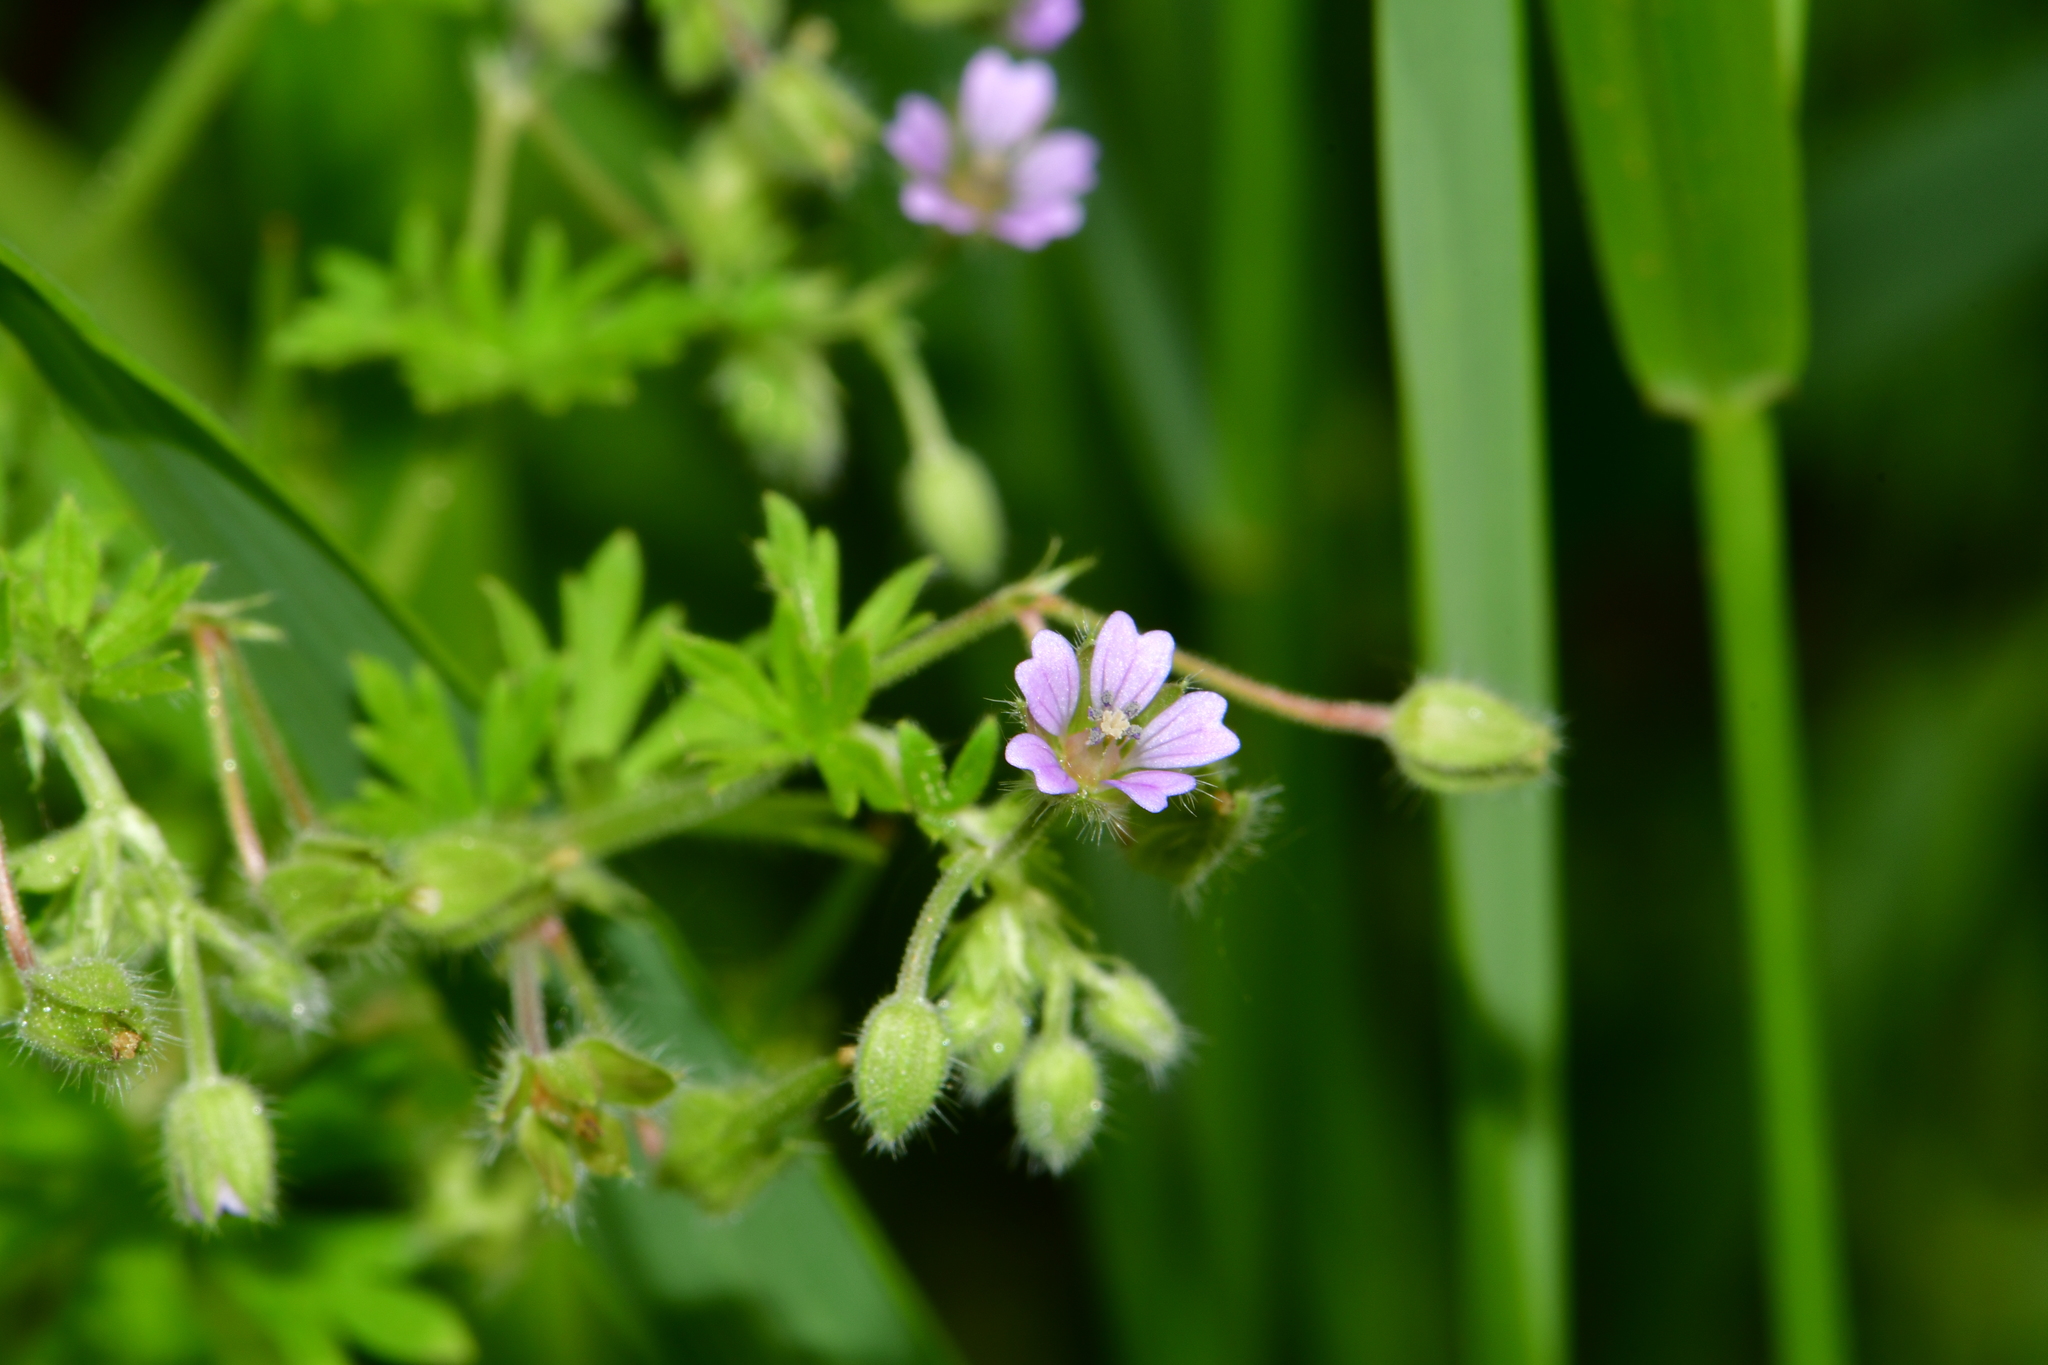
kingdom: Plantae
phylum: Tracheophyta
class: Magnoliopsida
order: Geraniales
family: Geraniaceae
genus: Geranium
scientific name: Geranium pusillum
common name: Small geranium
